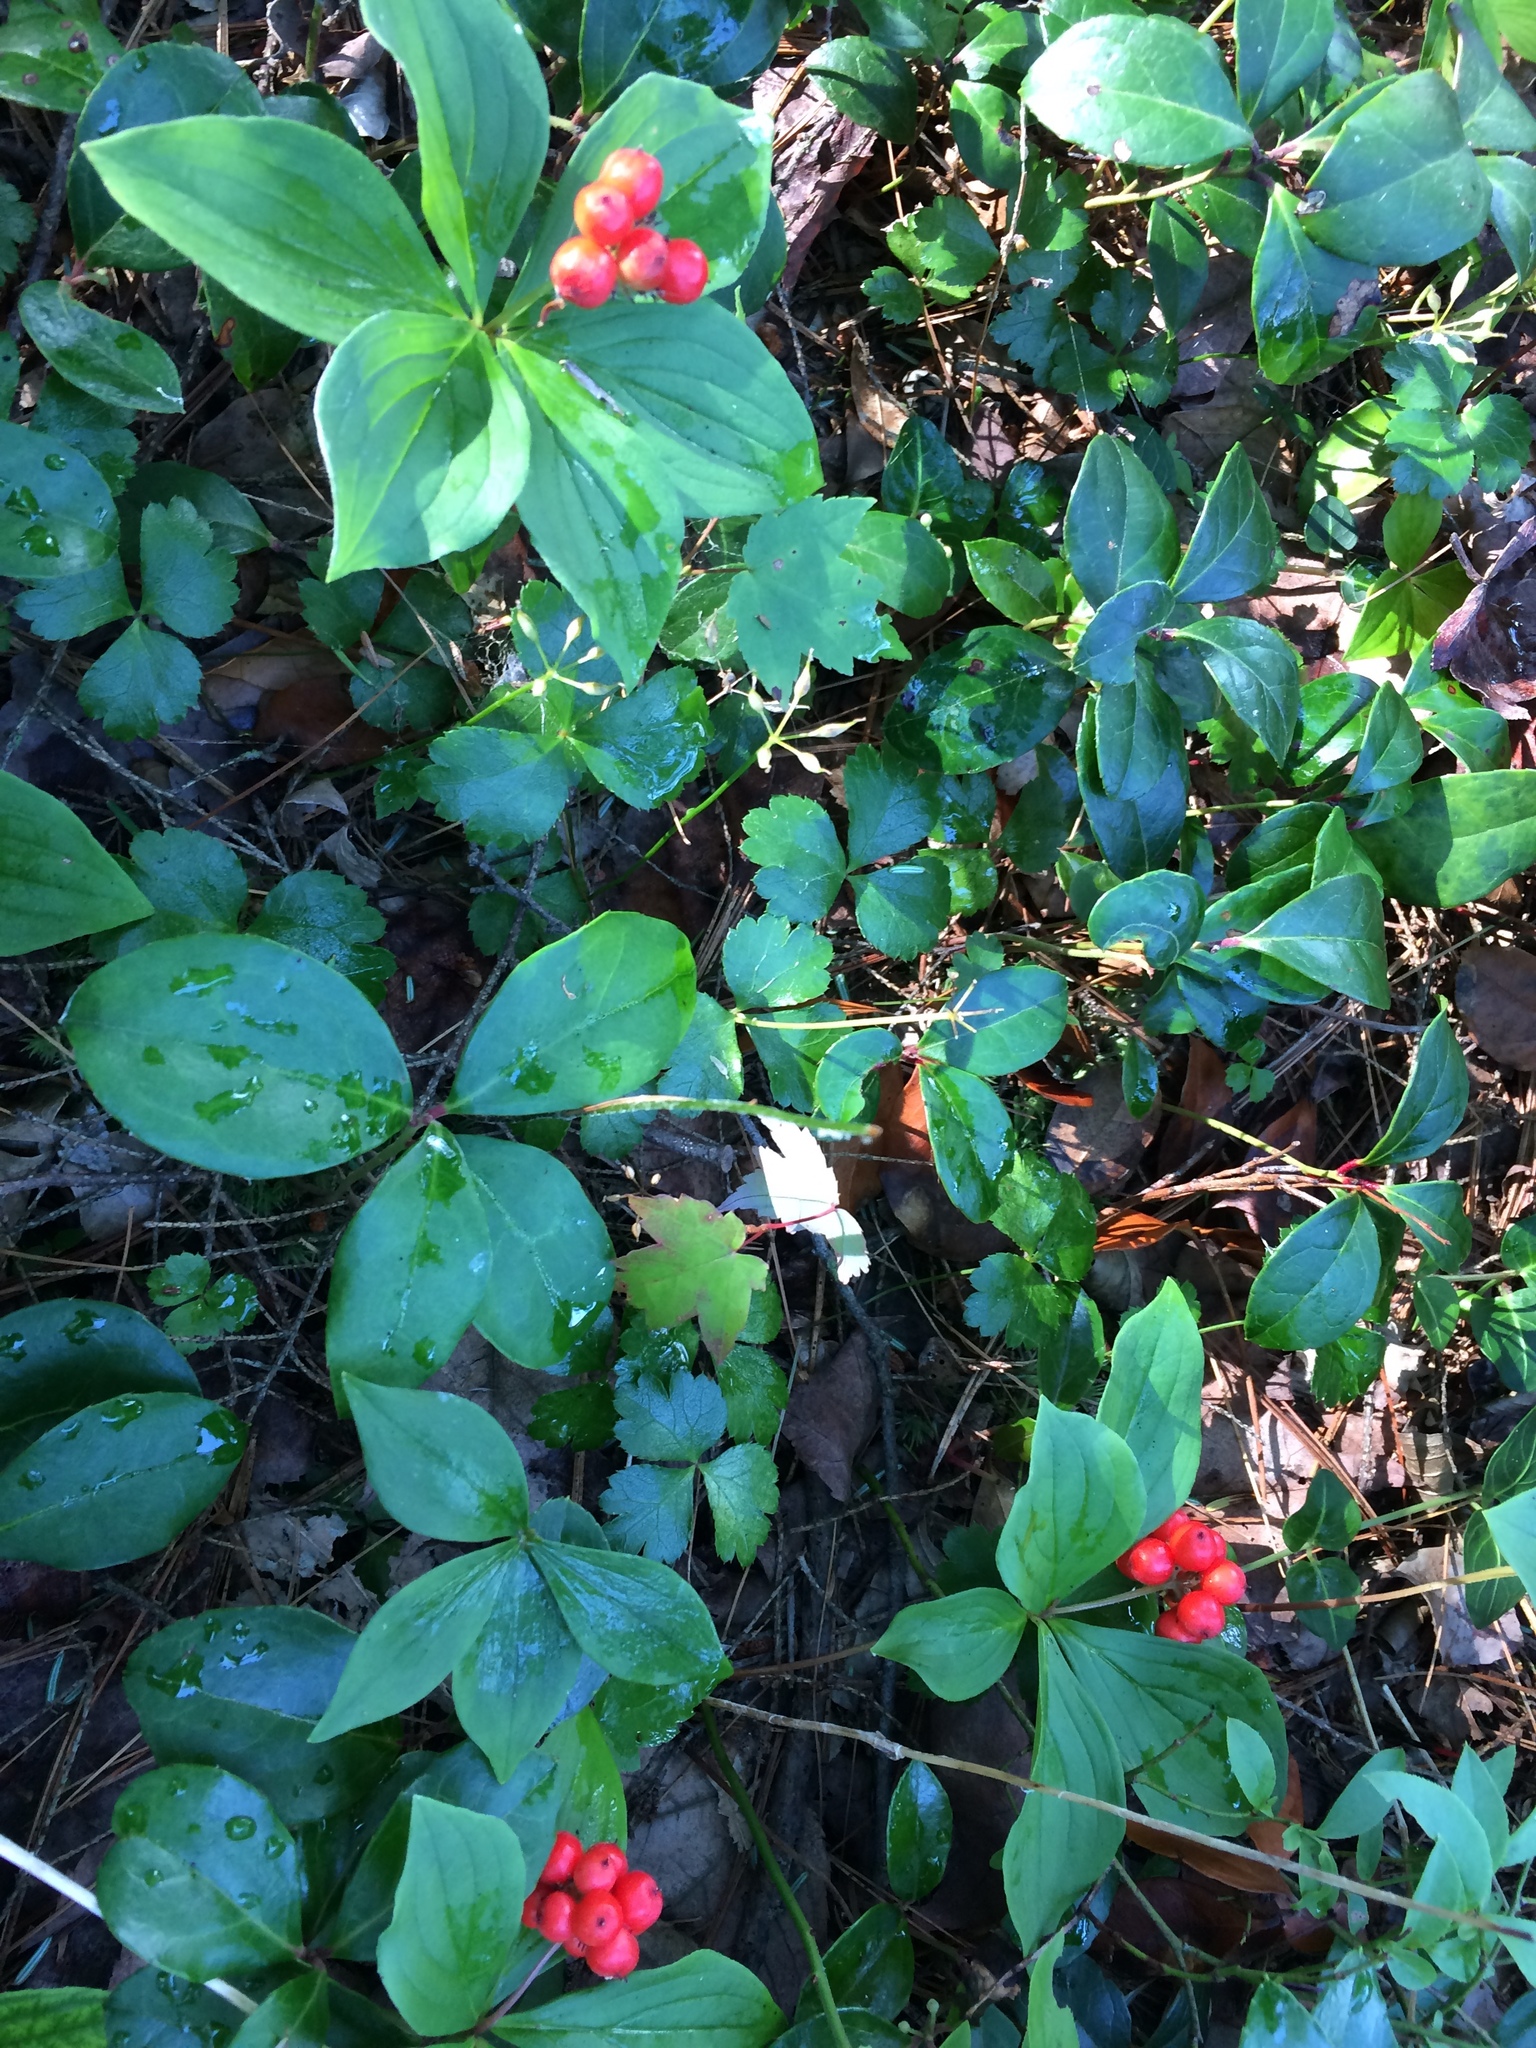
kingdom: Plantae
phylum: Tracheophyta
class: Magnoliopsida
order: Cornales
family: Cornaceae
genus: Cornus
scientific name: Cornus canadensis
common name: Creeping dogwood
